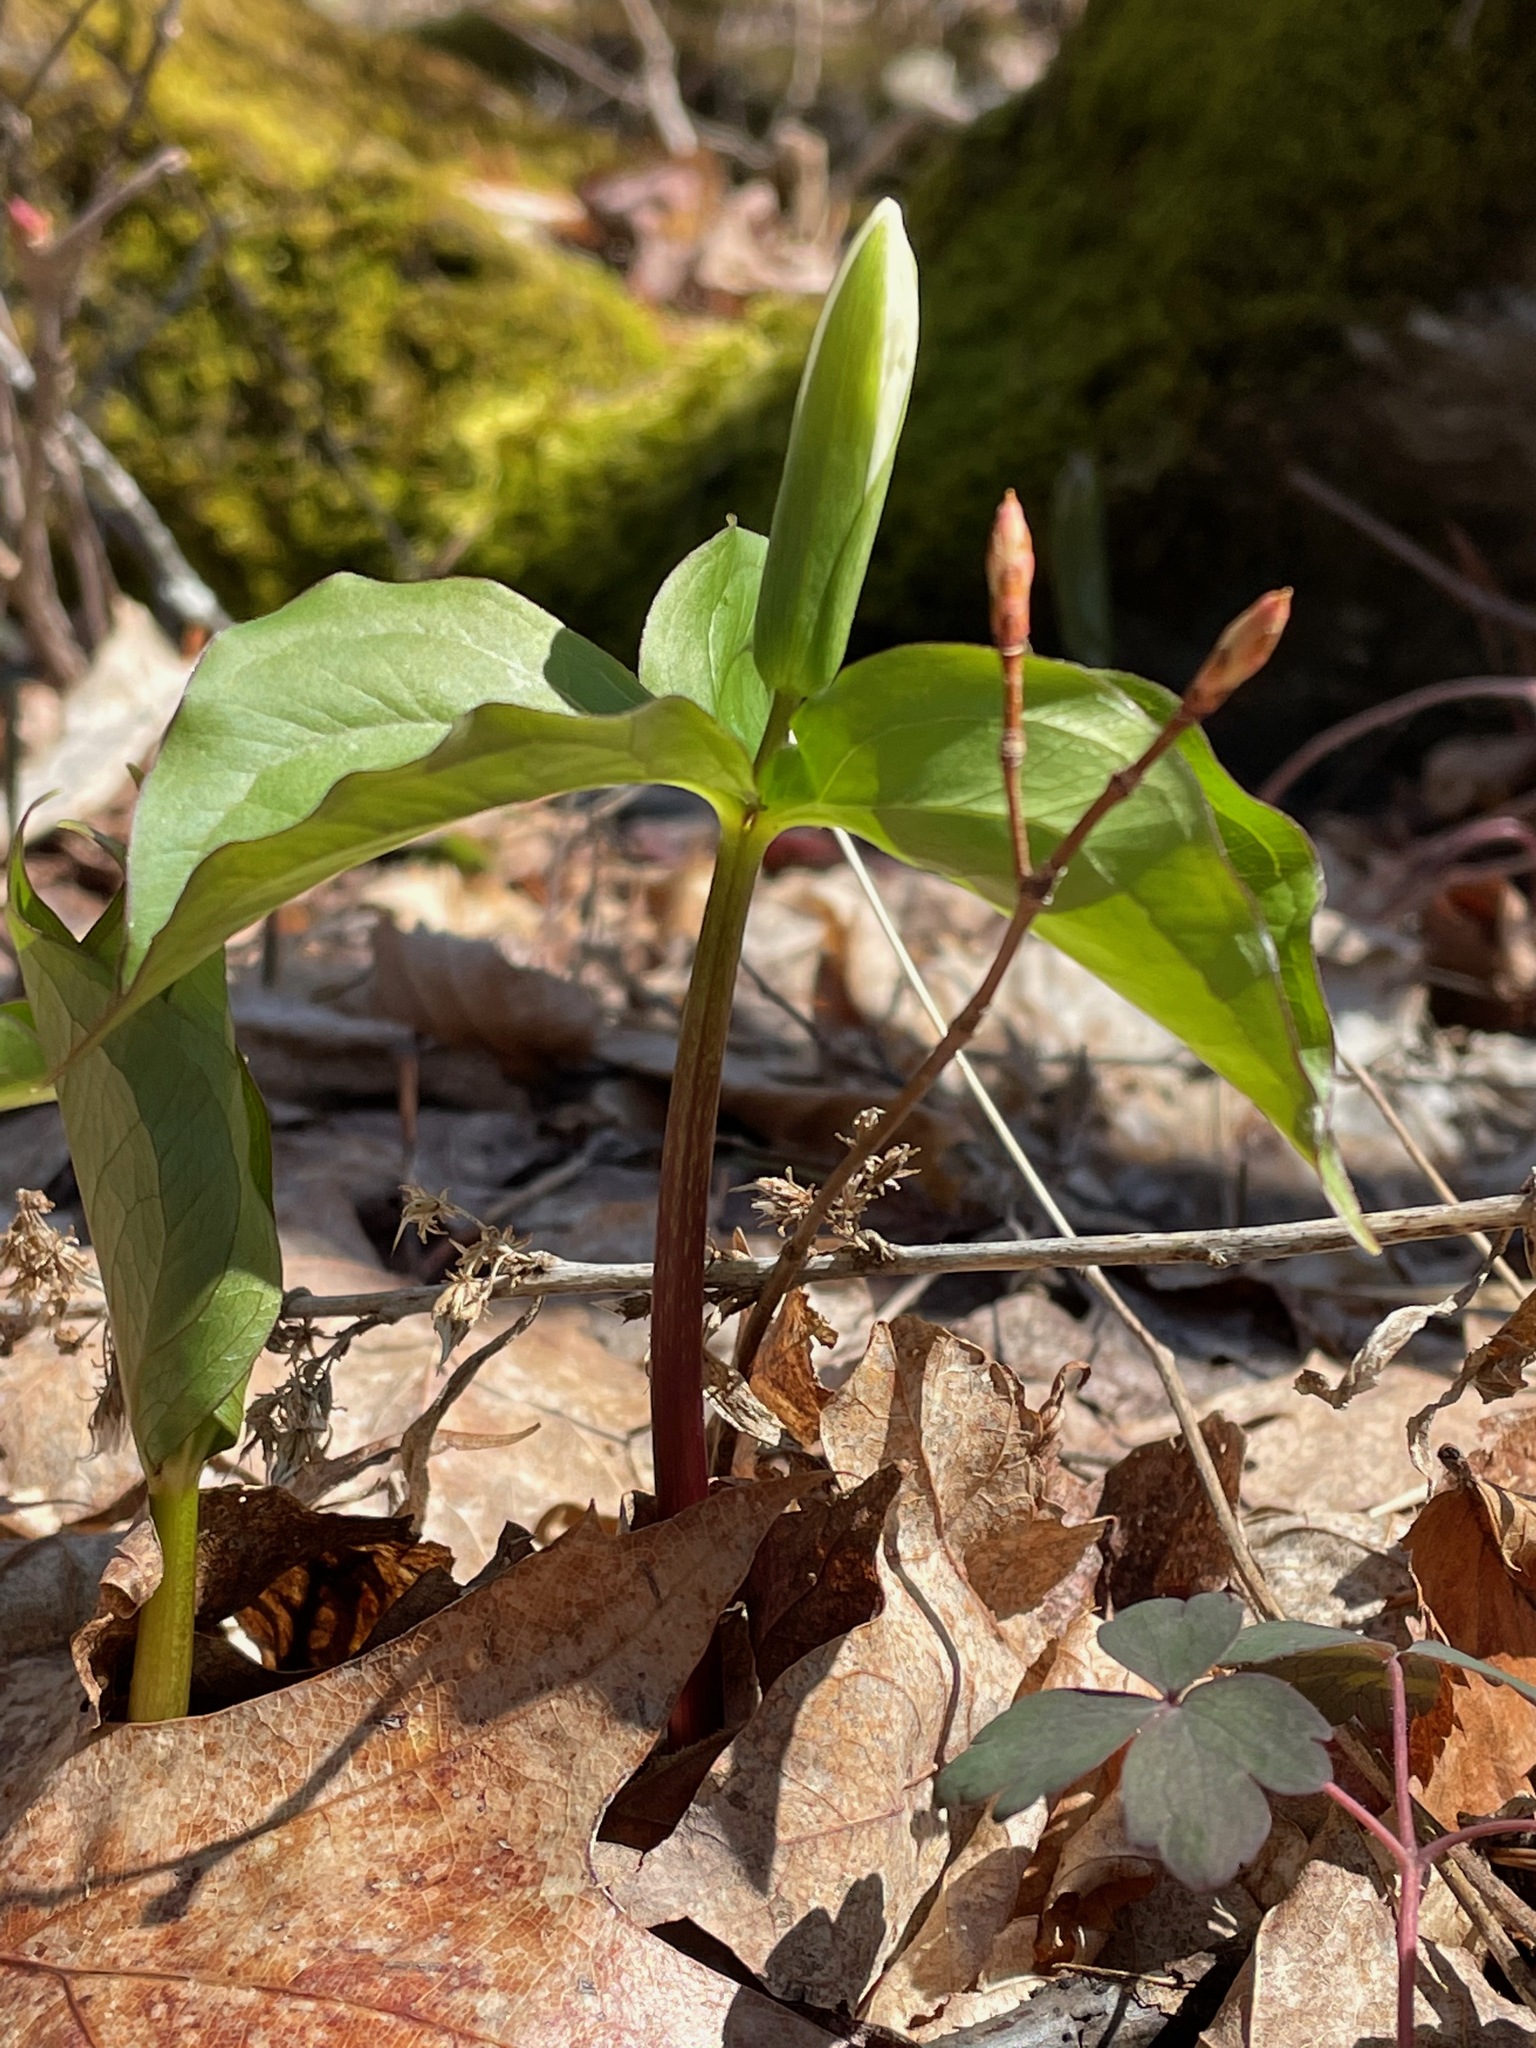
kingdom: Plantae
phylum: Tracheophyta
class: Liliopsida
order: Liliales
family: Melanthiaceae
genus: Trillium
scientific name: Trillium grandiflorum
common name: Great white trillium
